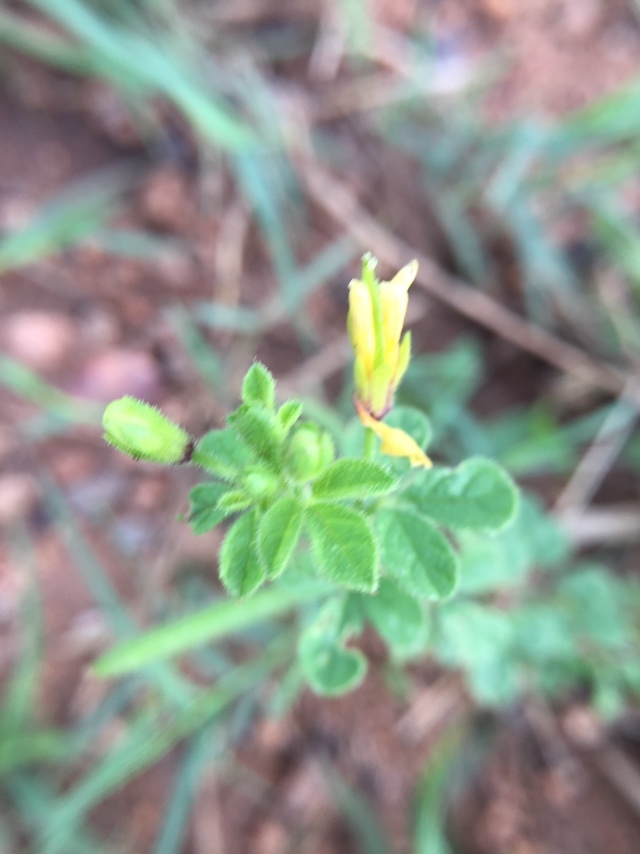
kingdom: Plantae
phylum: Tracheophyta
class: Magnoliopsida
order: Brassicales
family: Cleomaceae
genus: Arivela
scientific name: Arivela viscosa
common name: Asian spiderflower
